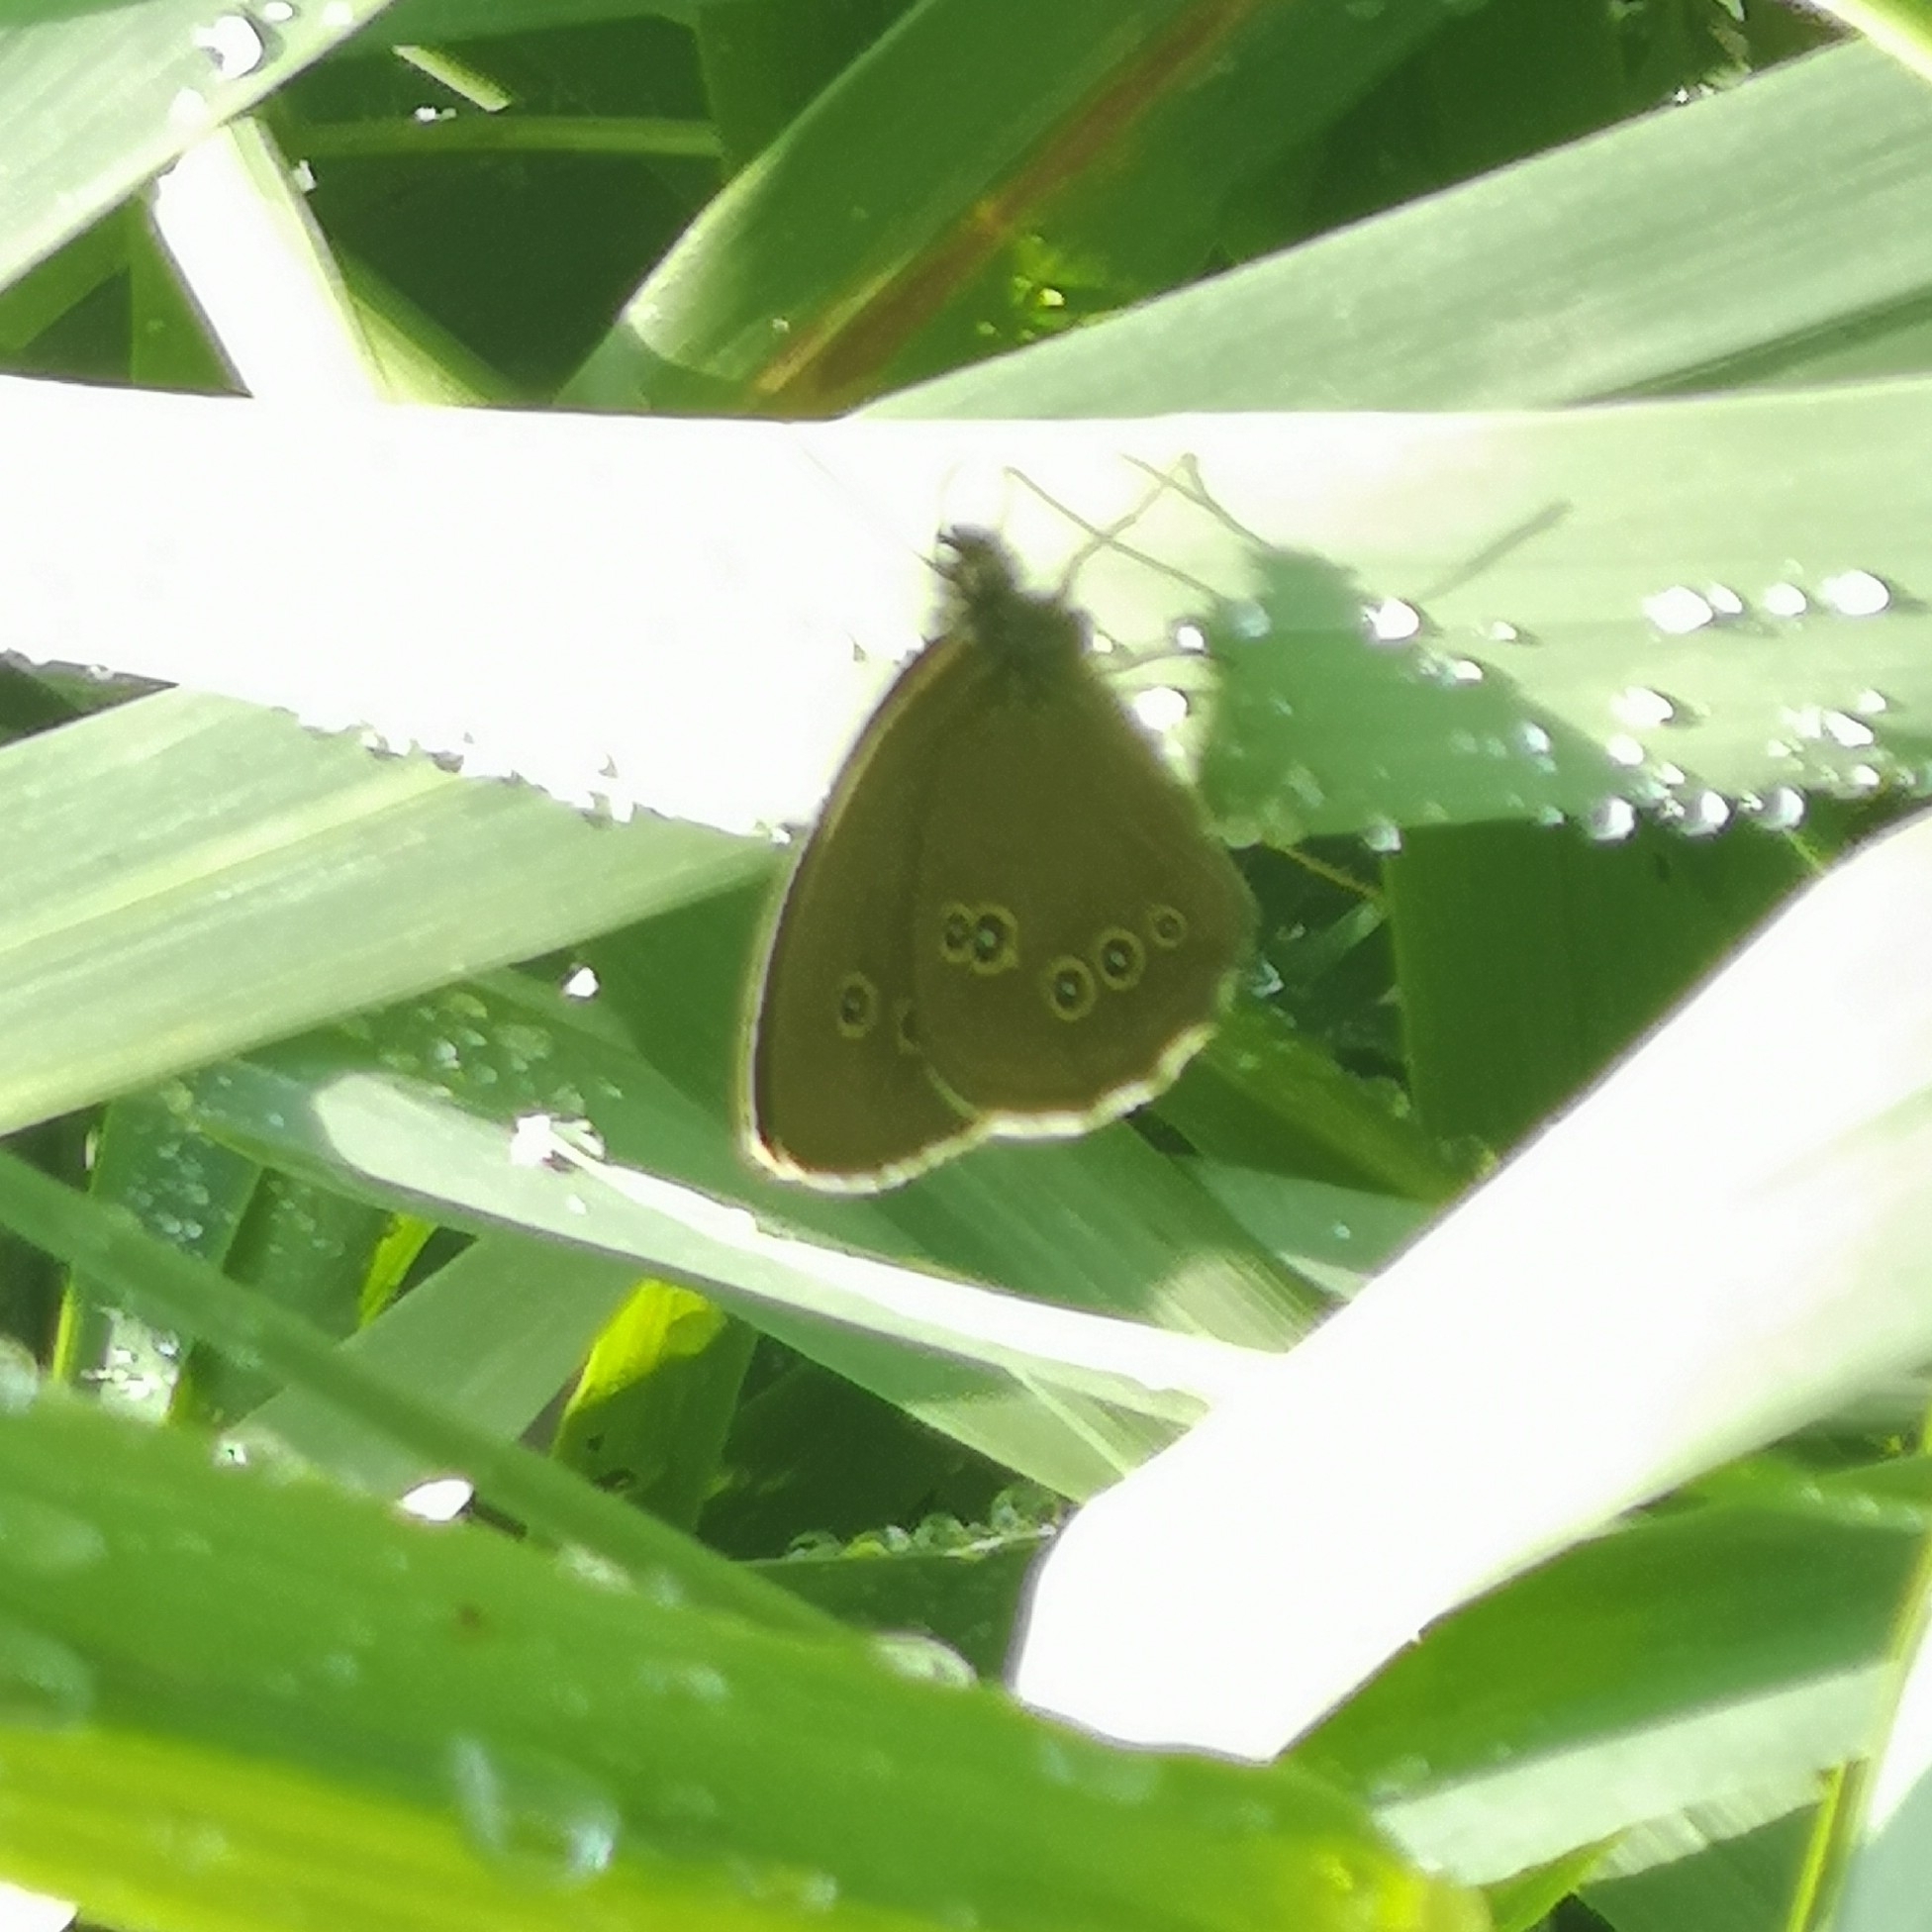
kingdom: Animalia
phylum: Arthropoda
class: Insecta
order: Lepidoptera
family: Nymphalidae
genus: Aphantopus
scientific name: Aphantopus hyperantus
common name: Ringlet
